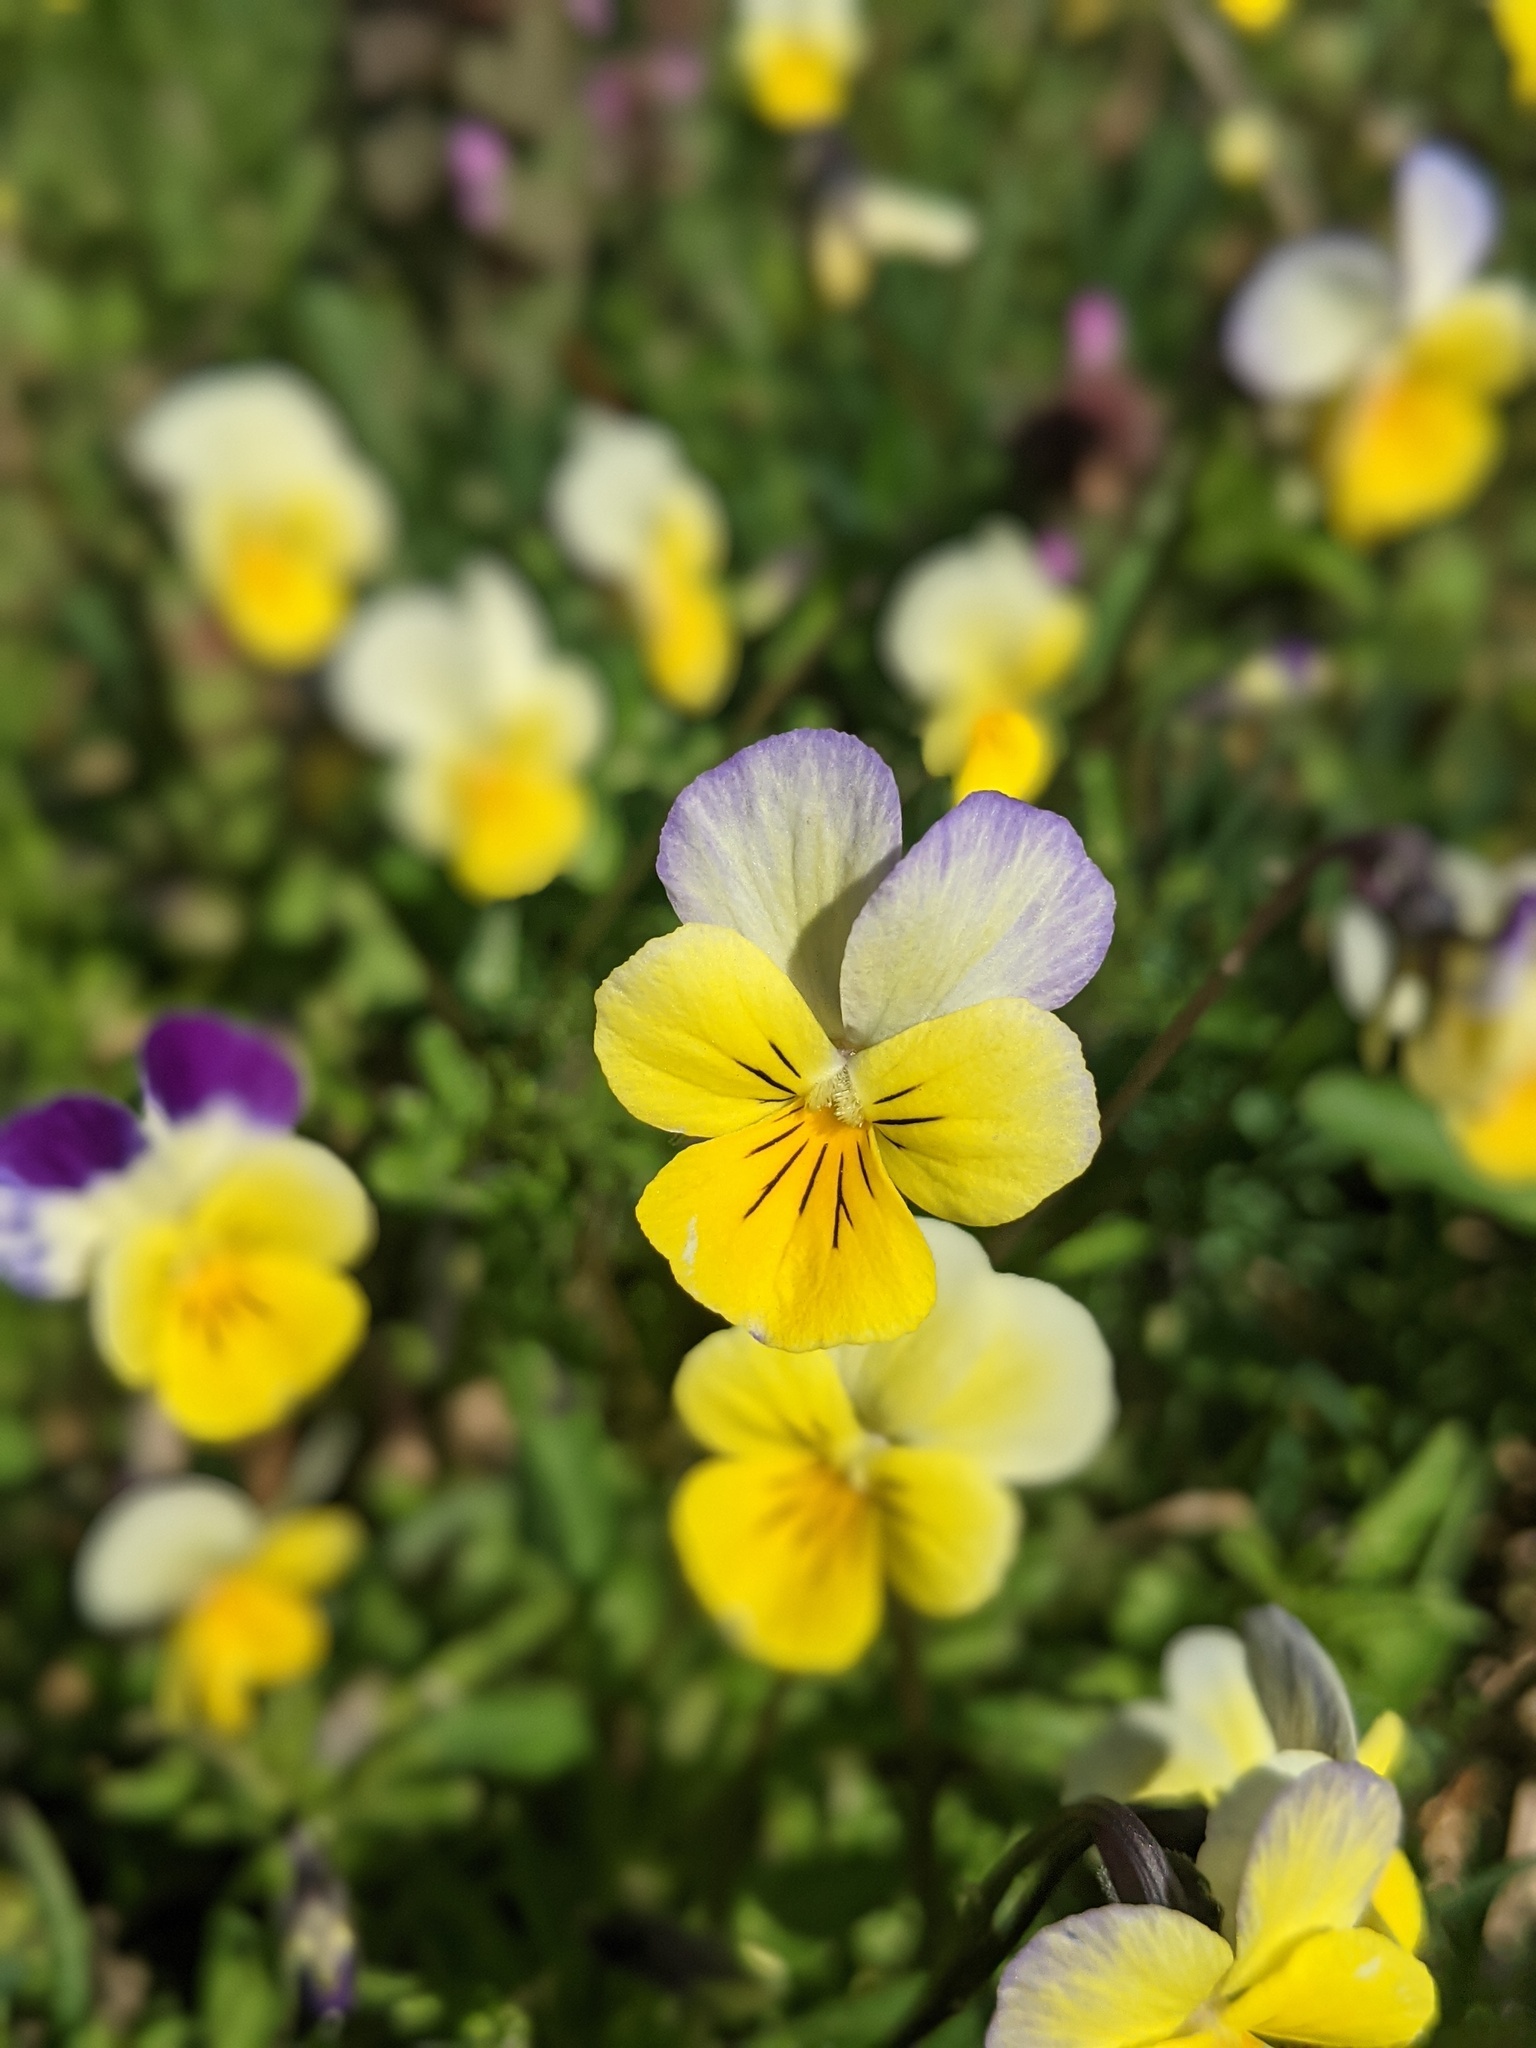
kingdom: Plantae
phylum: Tracheophyta
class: Magnoliopsida
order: Malpighiales
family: Violaceae
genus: Viola
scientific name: Viola tricolor
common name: Pansy
